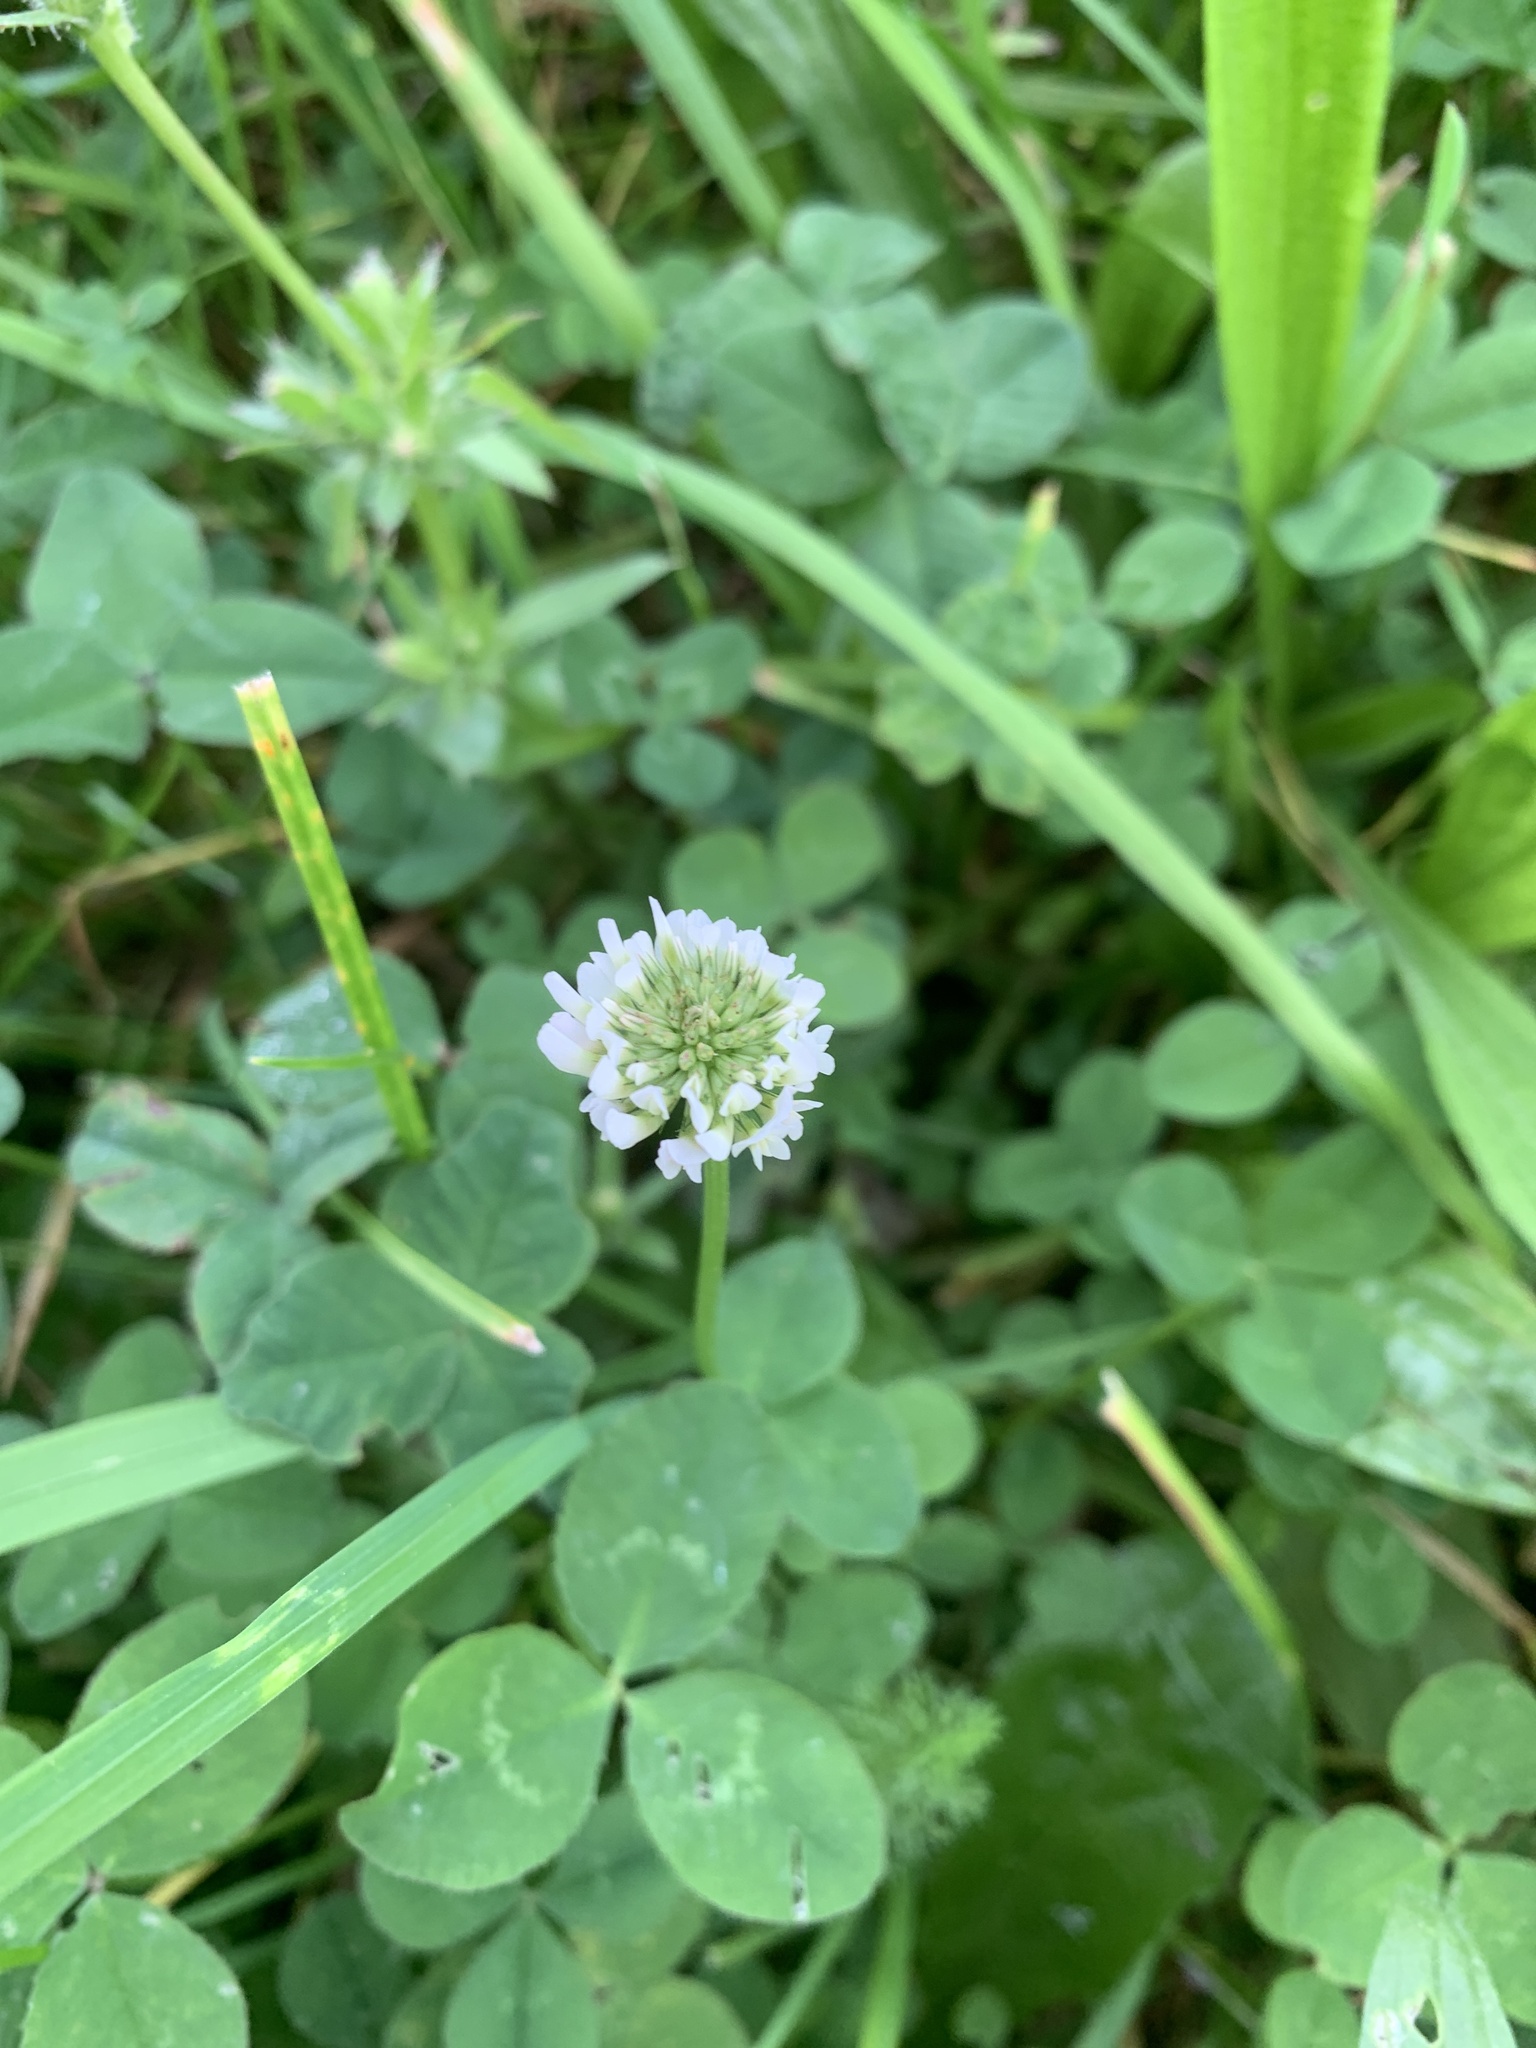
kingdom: Plantae
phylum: Tracheophyta
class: Magnoliopsida
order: Fabales
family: Fabaceae
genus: Trifolium
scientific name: Trifolium repens
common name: White clover
